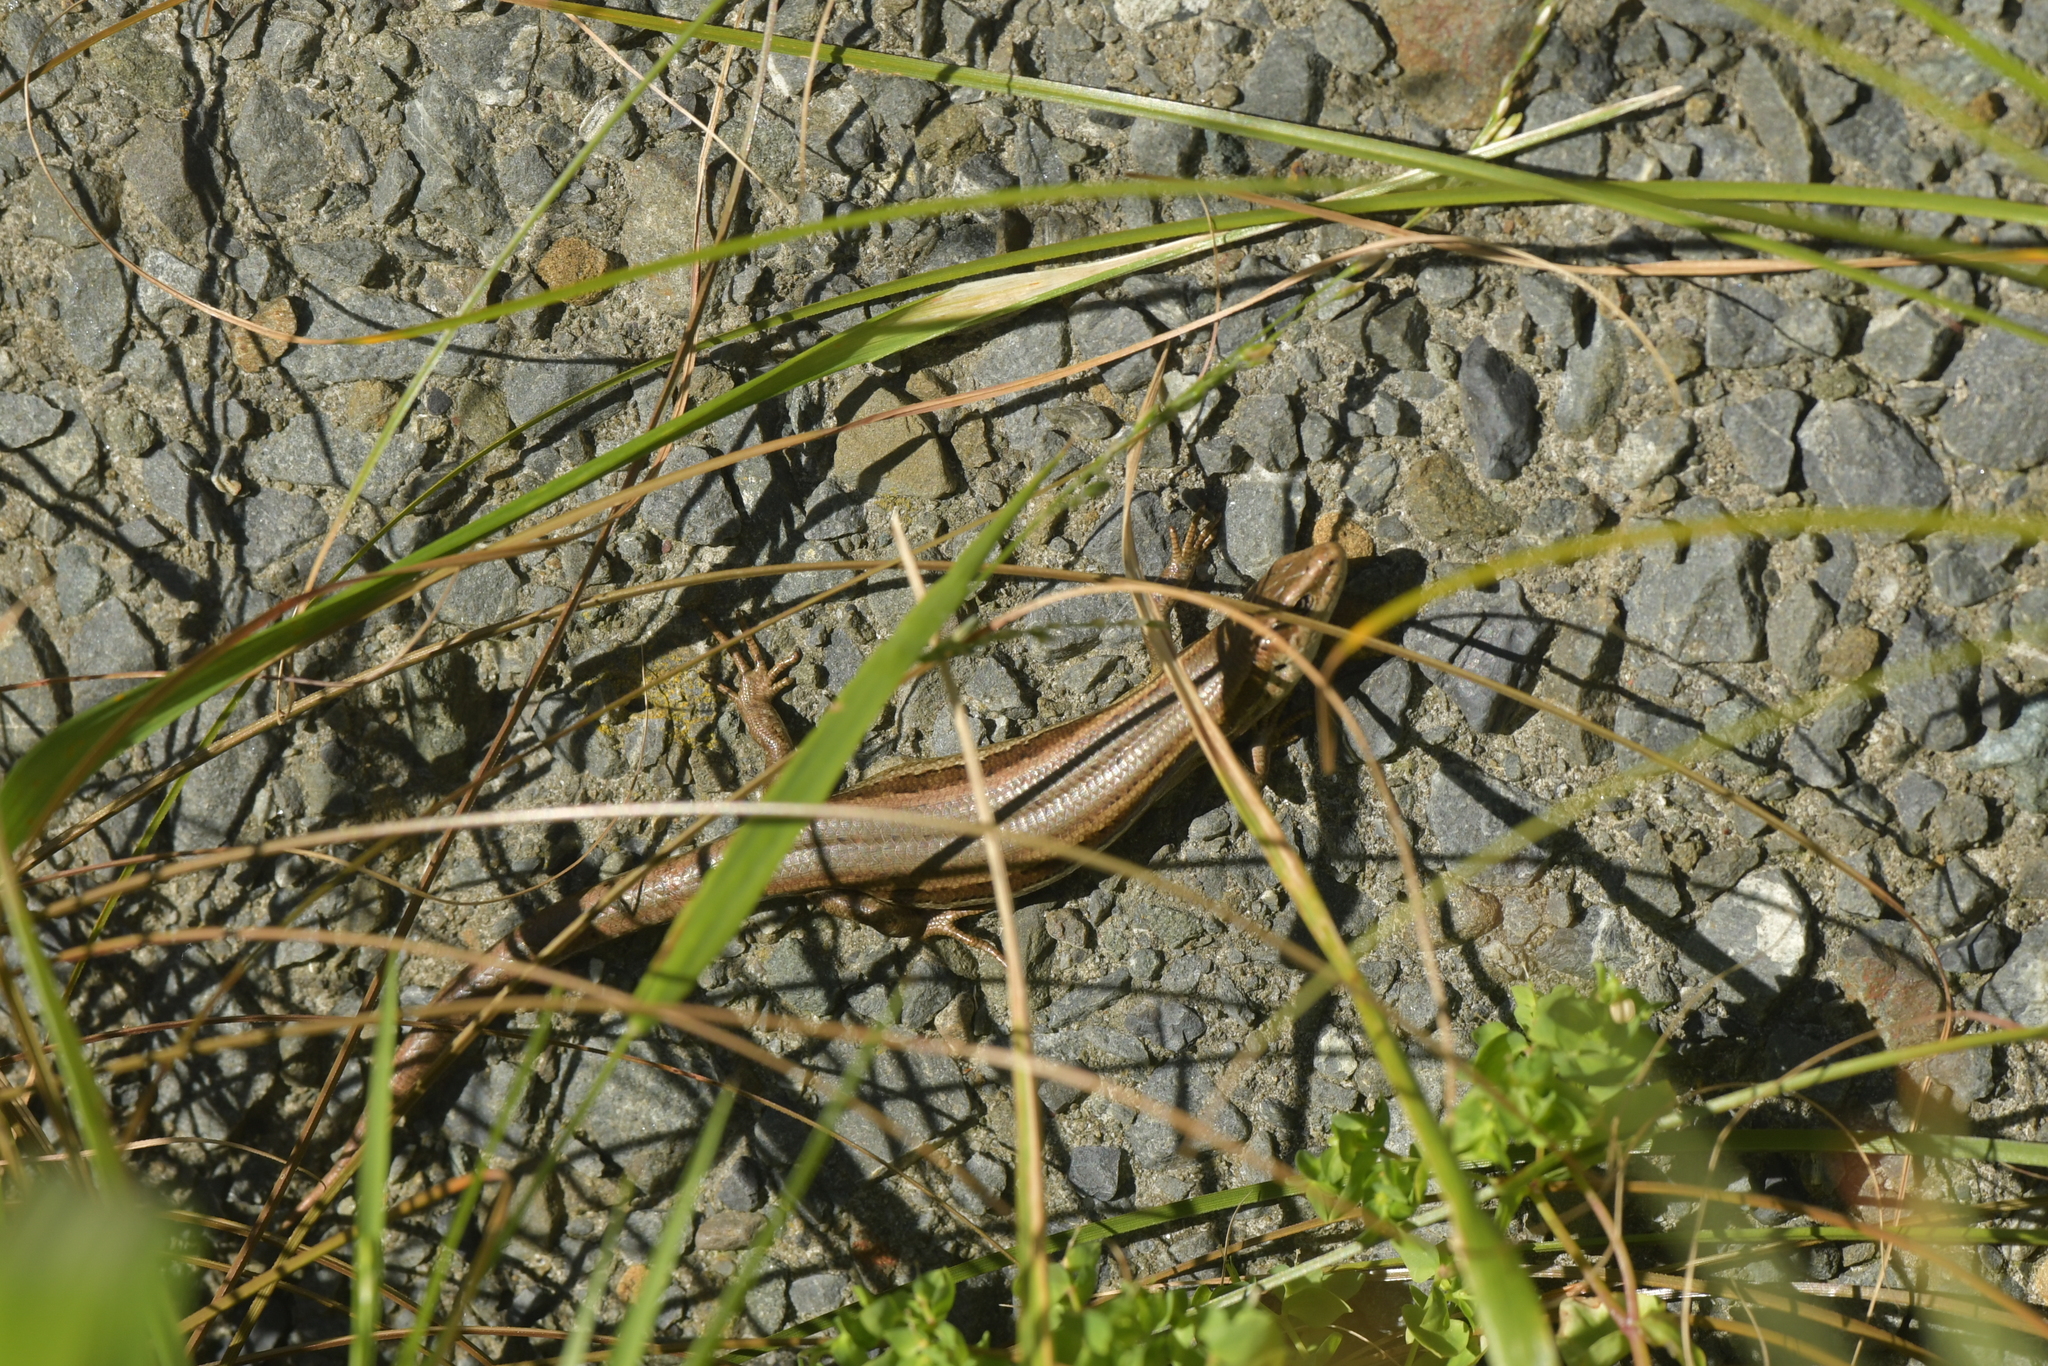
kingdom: Animalia
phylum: Chordata
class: Squamata
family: Scincidae
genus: Oligosoma
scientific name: Oligosoma polychroma
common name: Common new zealand skink
